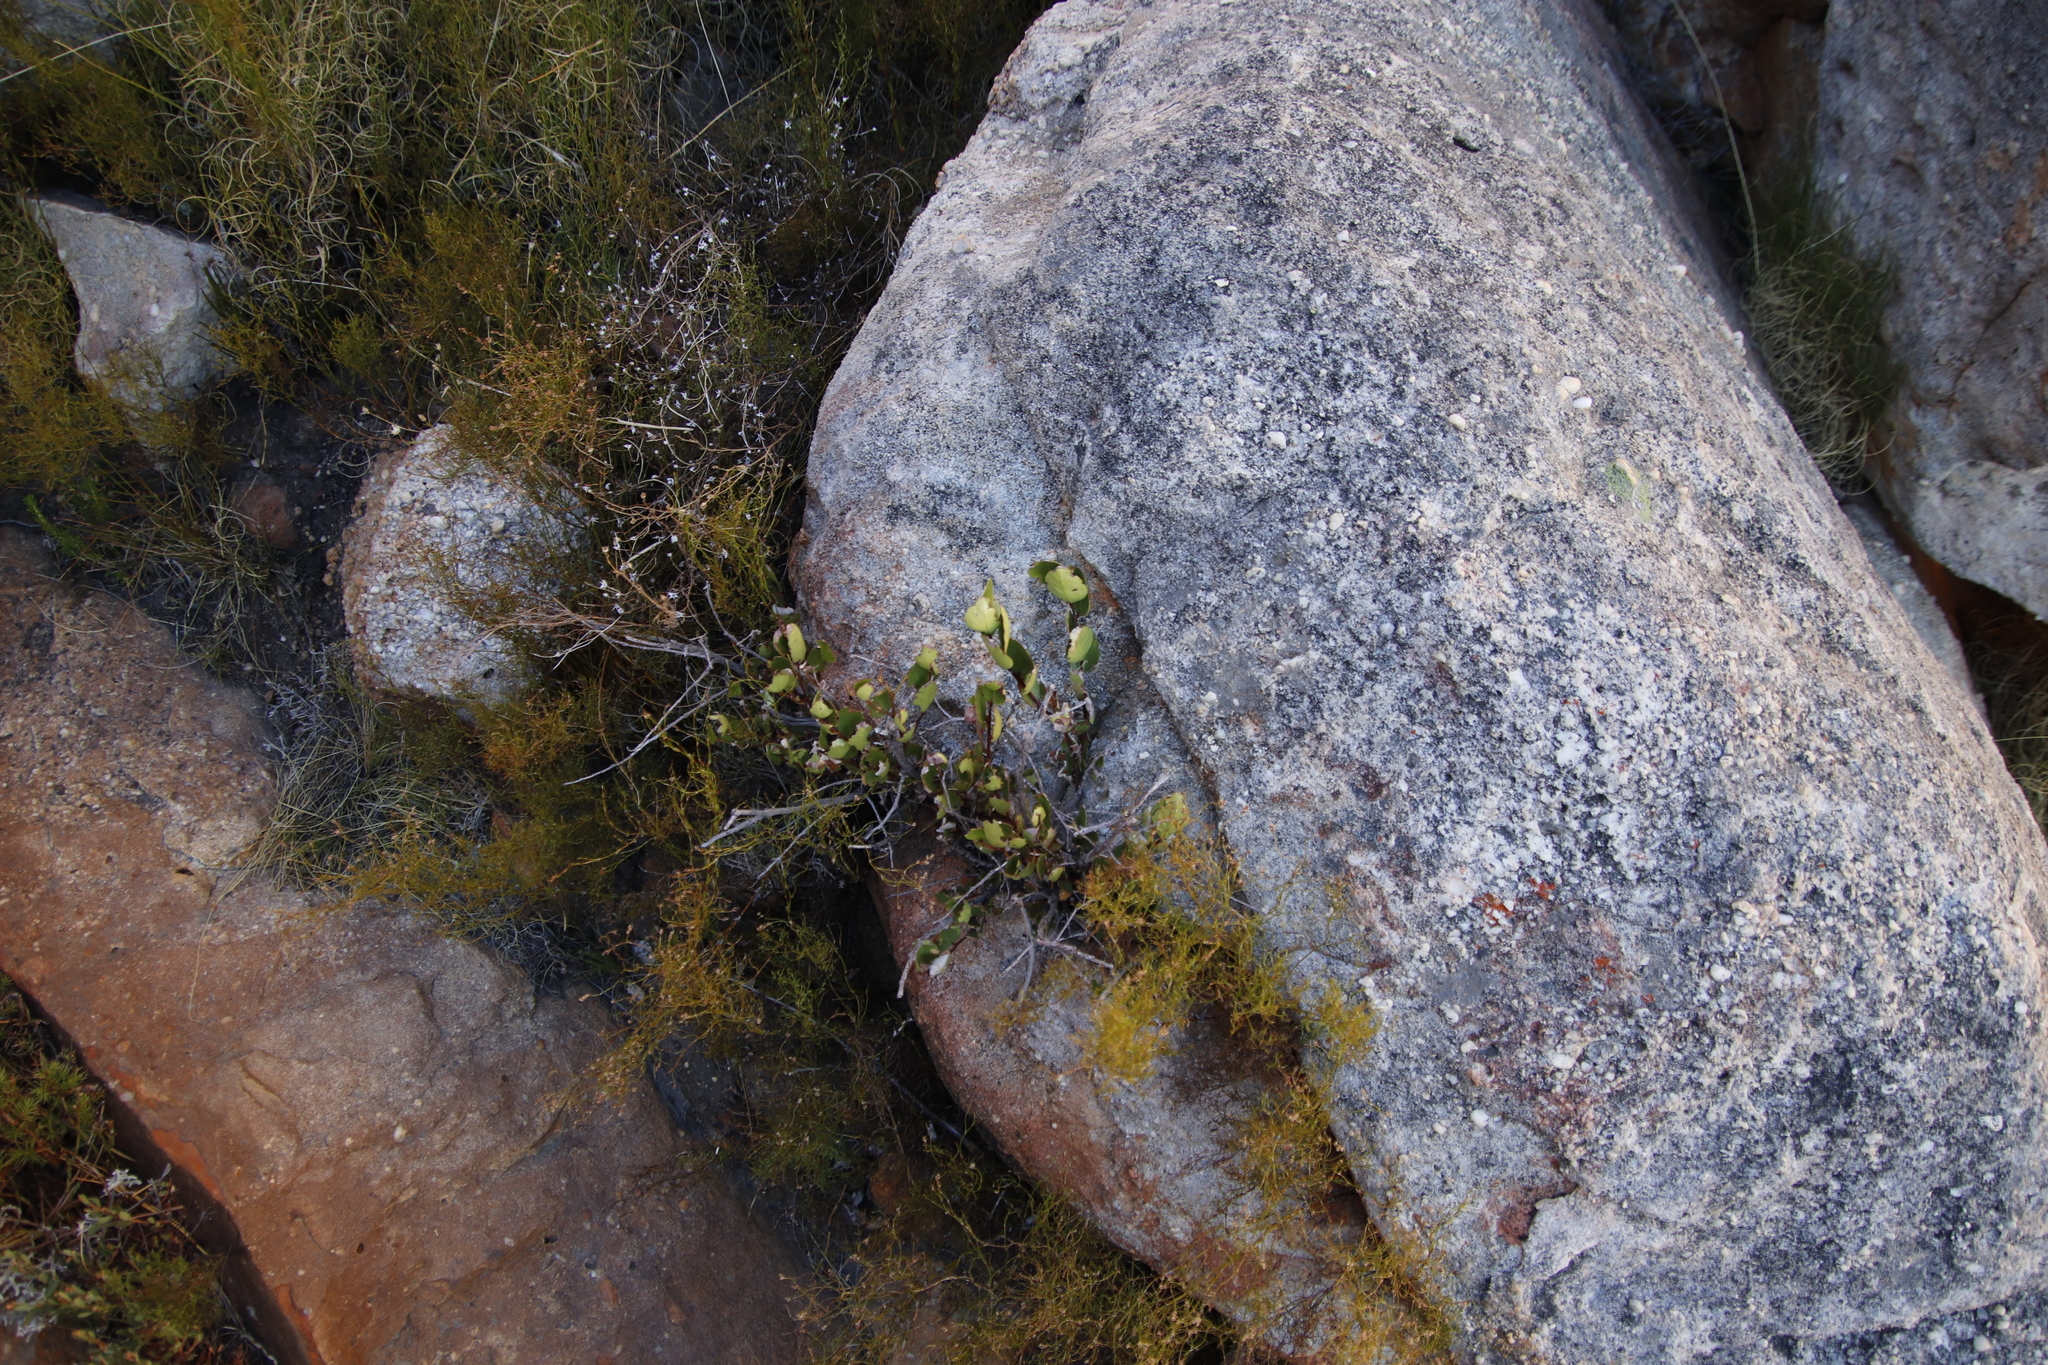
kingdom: Plantae
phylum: Tracheophyta
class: Magnoliopsida
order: Celastrales
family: Celastraceae
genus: Elaeodendron
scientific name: Elaeodendron schinoides
